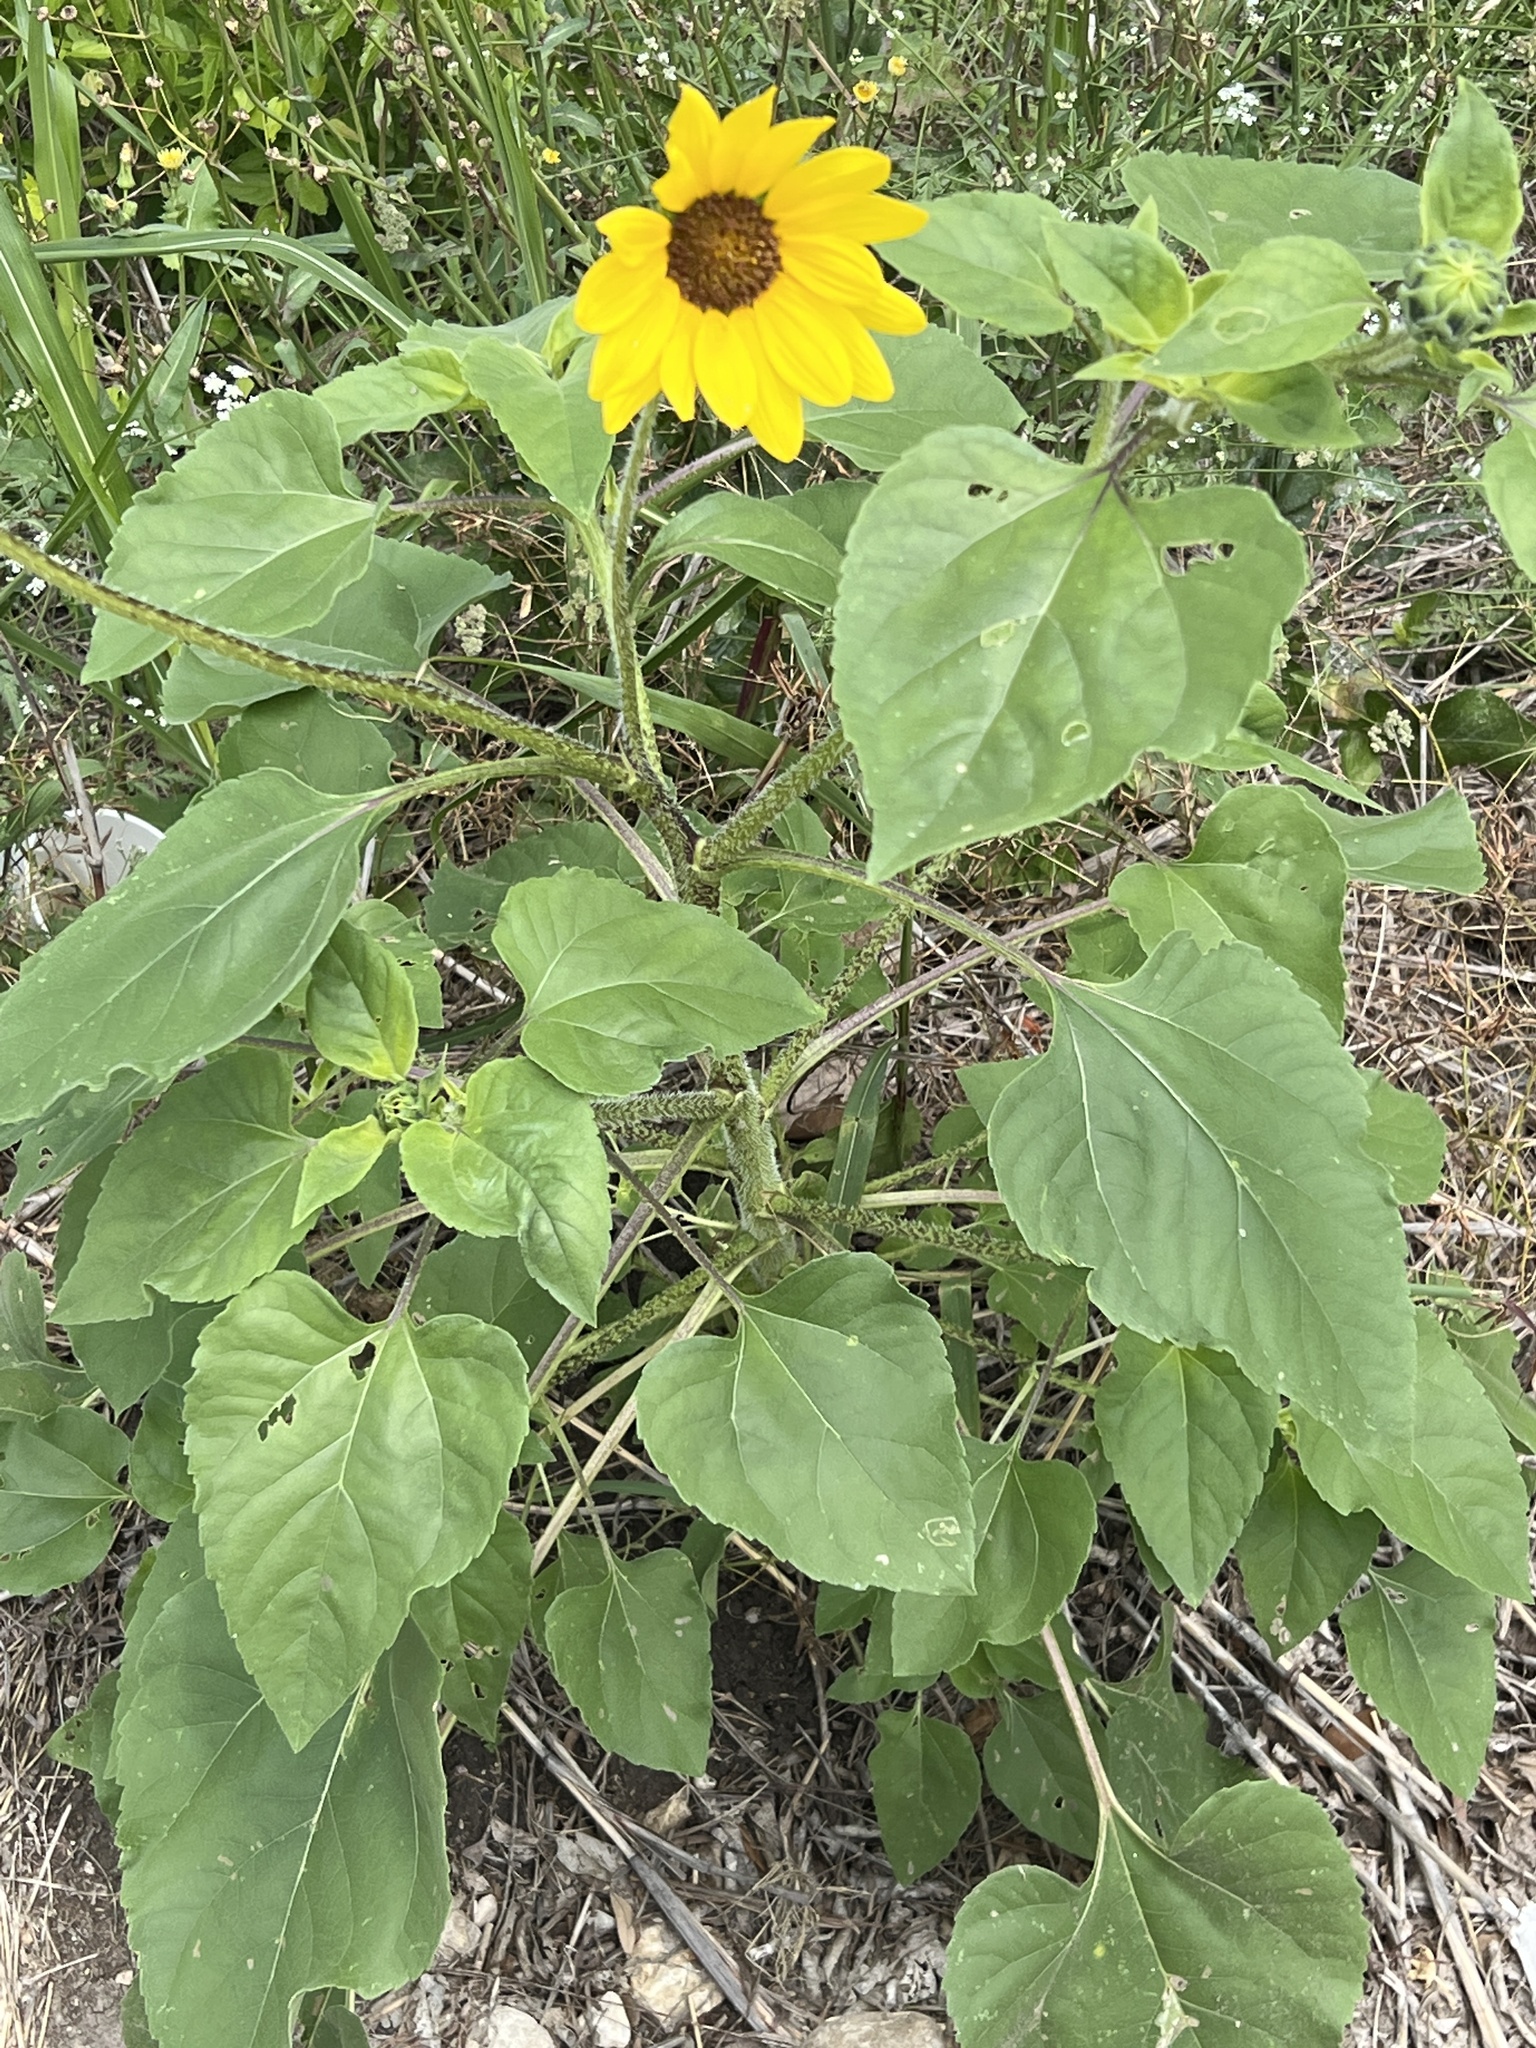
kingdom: Plantae
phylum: Tracheophyta
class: Magnoliopsida
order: Asterales
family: Asteraceae
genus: Helianthus
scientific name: Helianthus annuus
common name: Sunflower
